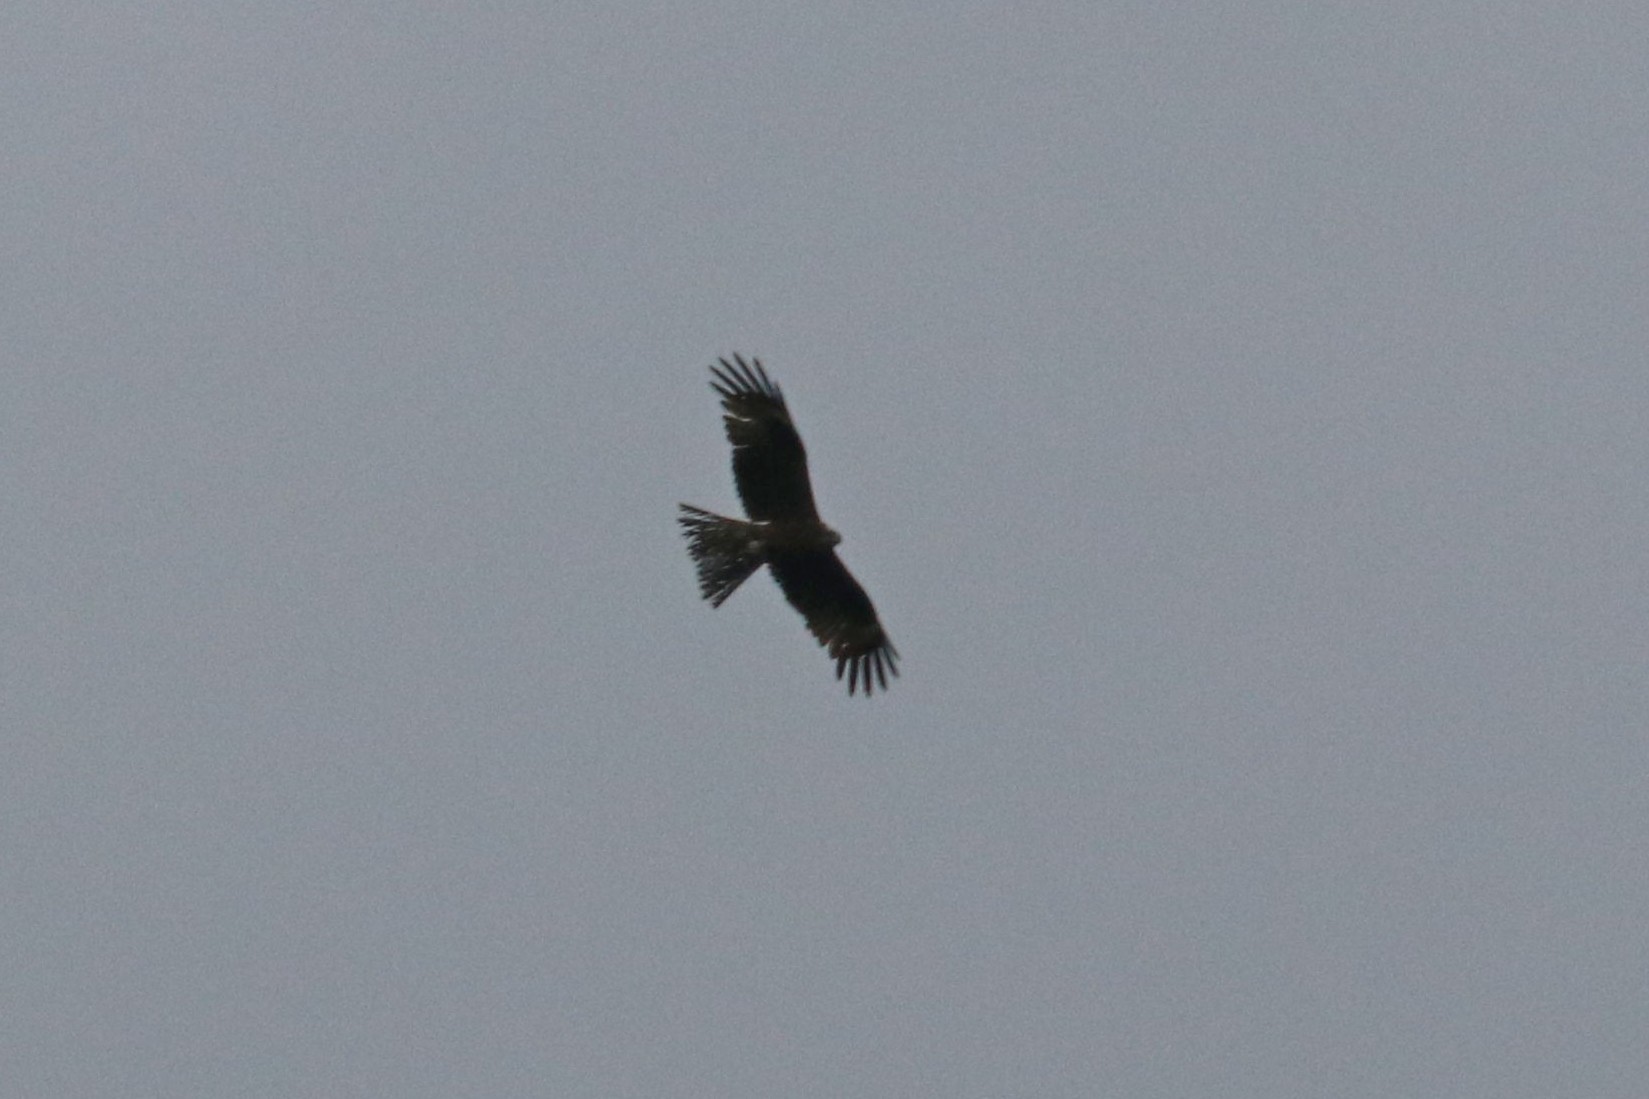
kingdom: Animalia
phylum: Chordata
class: Aves
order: Accipitriformes
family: Accipitridae
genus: Milvus
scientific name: Milvus migrans
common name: Black kite
